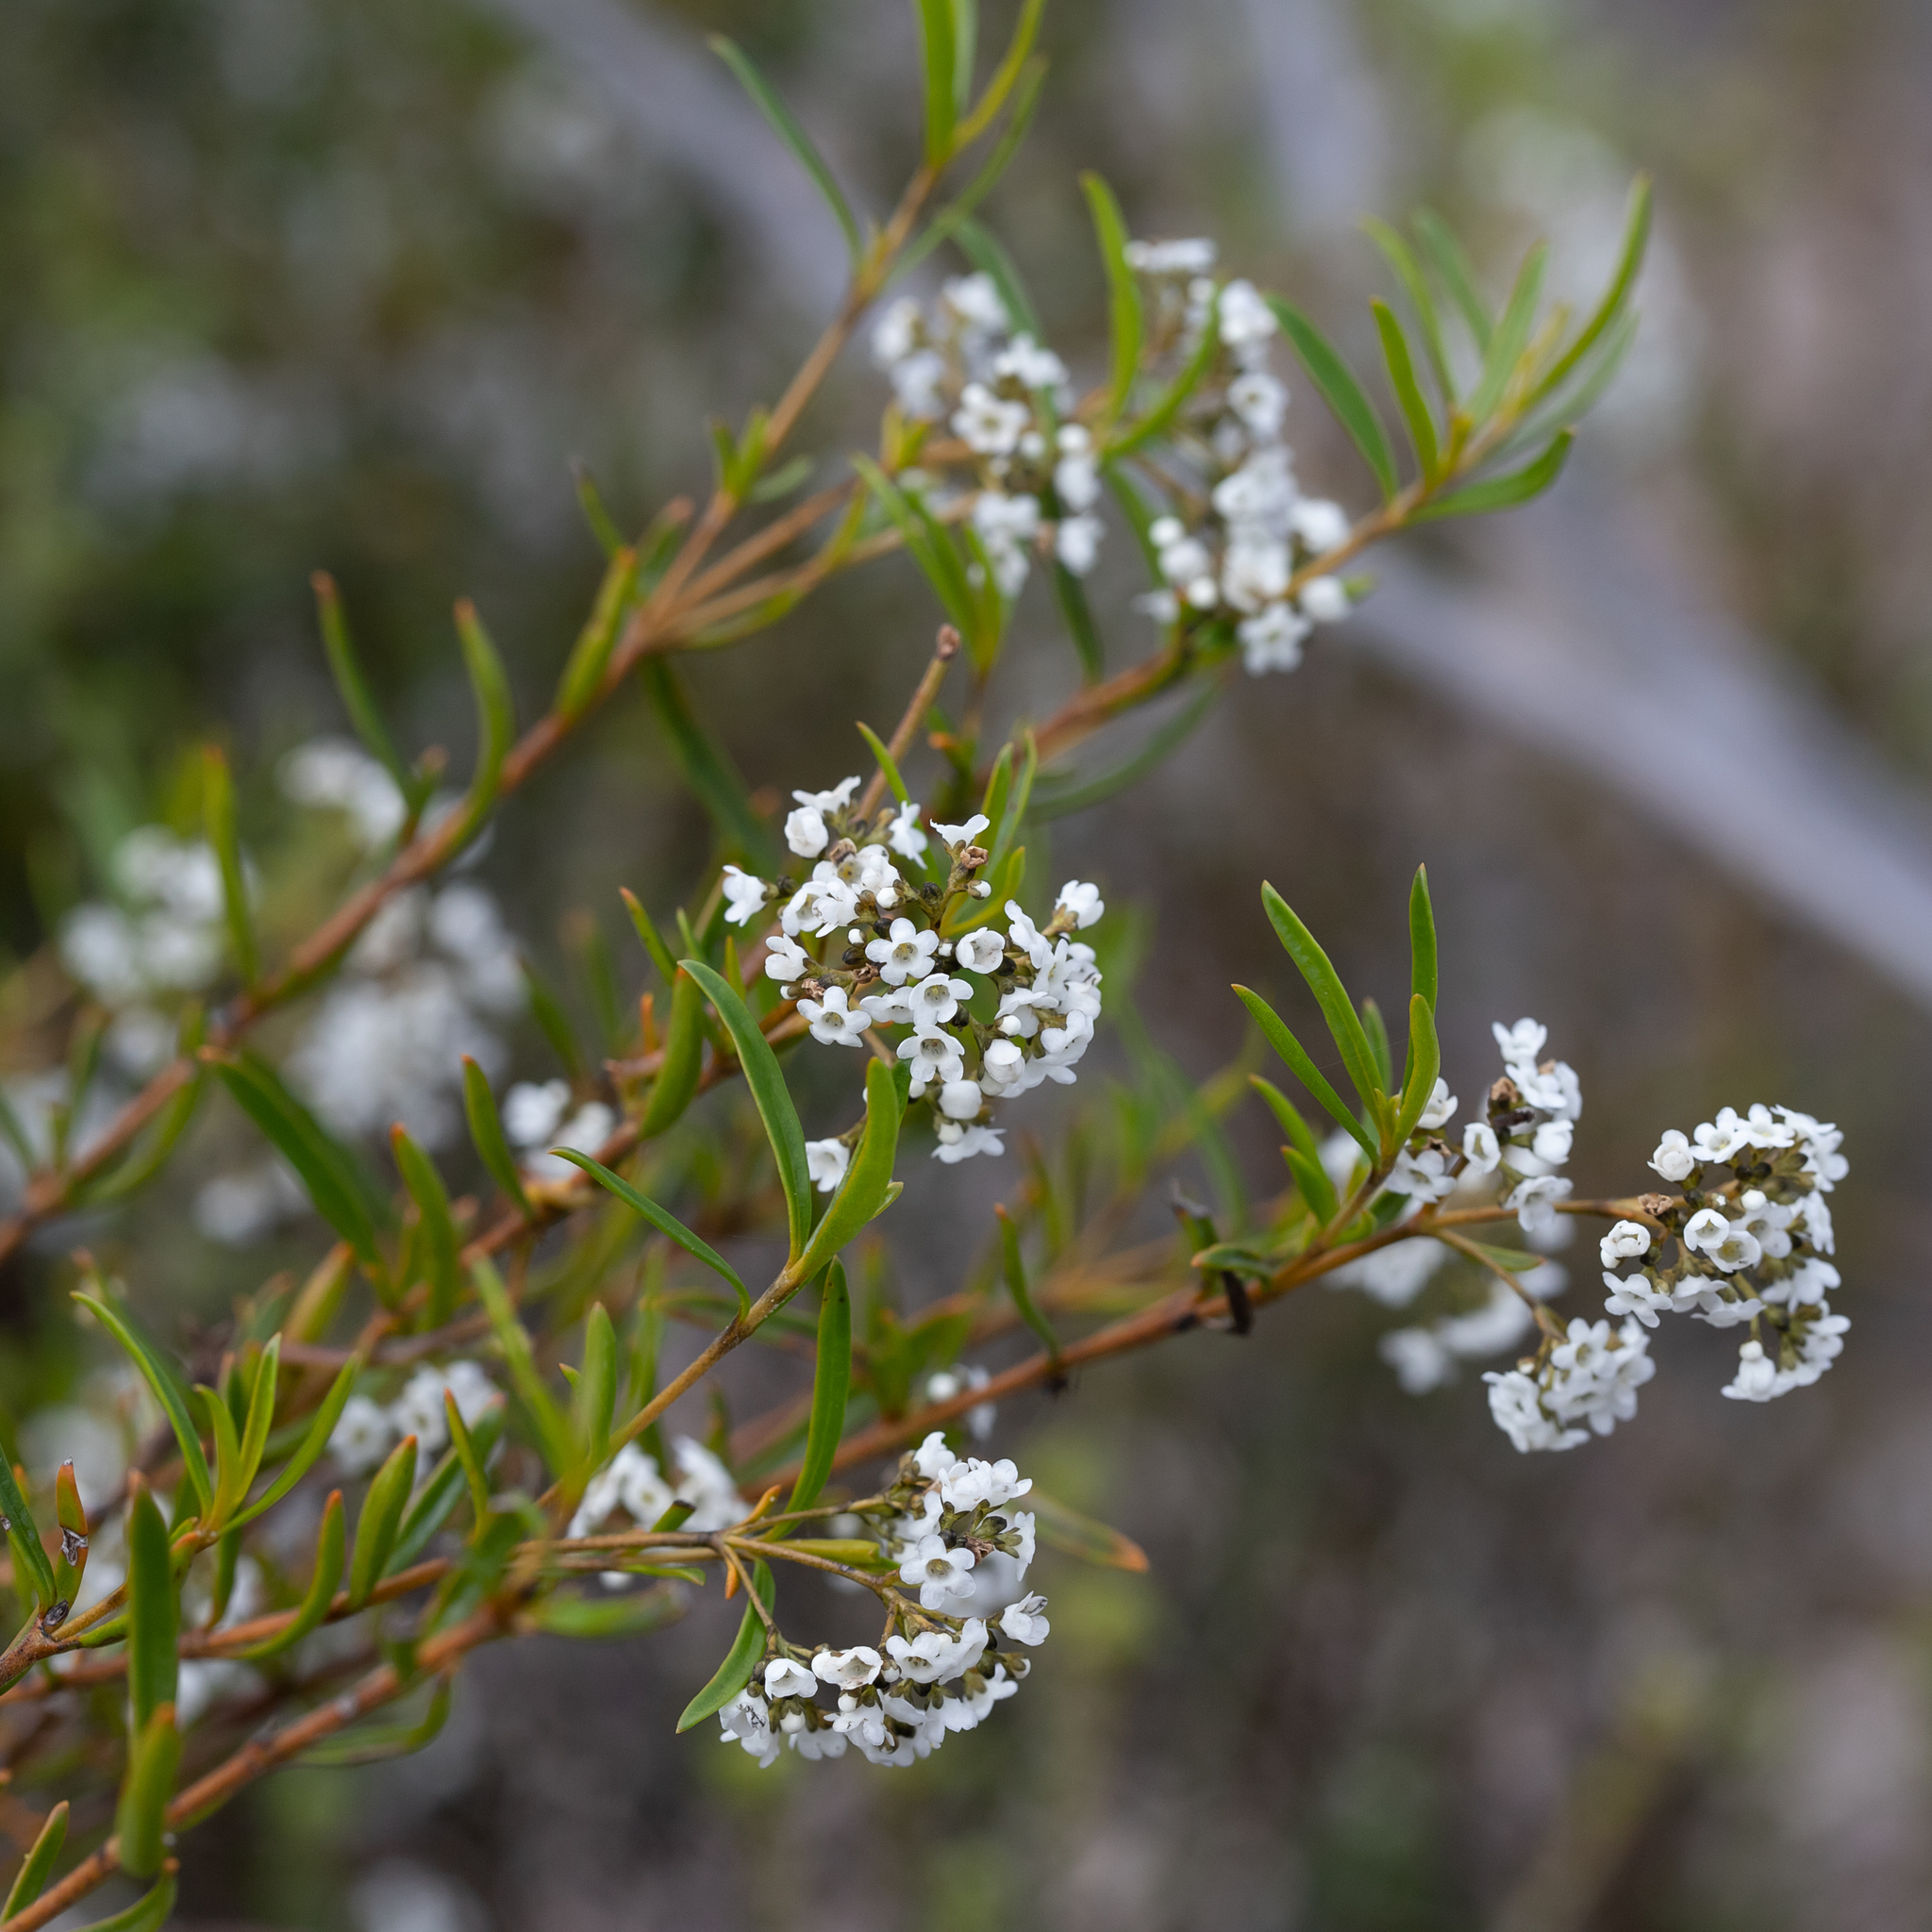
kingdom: Plantae
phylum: Tracheophyta
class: Magnoliopsida
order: Gentianales
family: Loganiaceae
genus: Logania
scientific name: Logania linifolia
